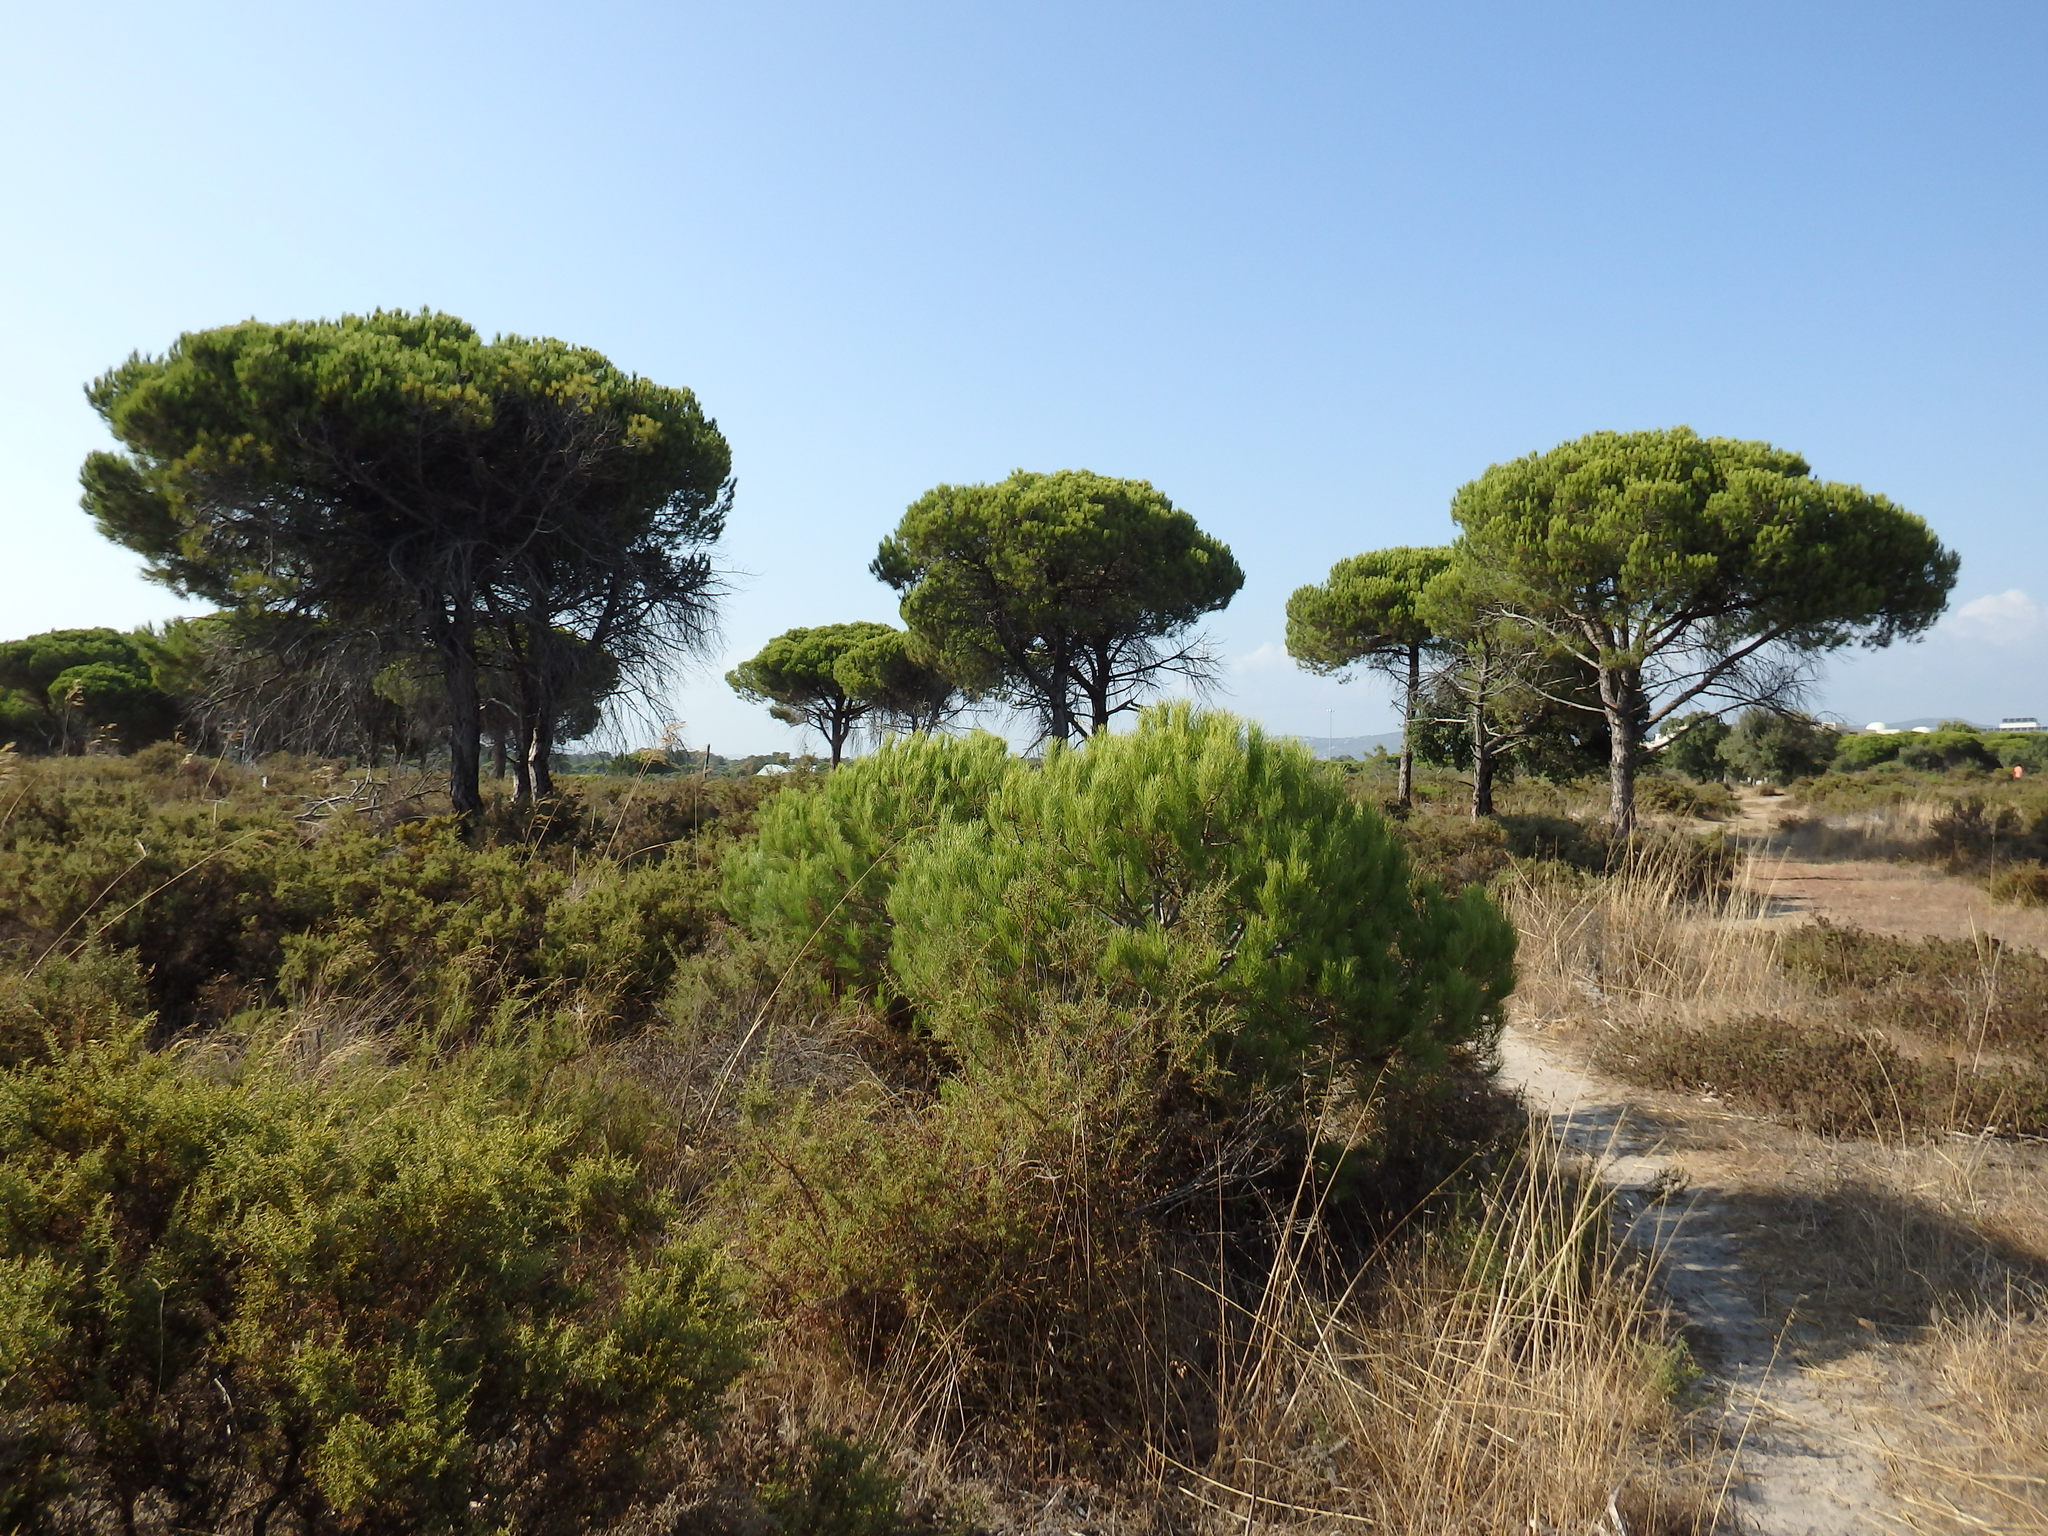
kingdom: Plantae
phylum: Tracheophyta
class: Pinopsida
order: Pinales
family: Pinaceae
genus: Pinus
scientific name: Pinus pinea
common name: Italian stone pine
